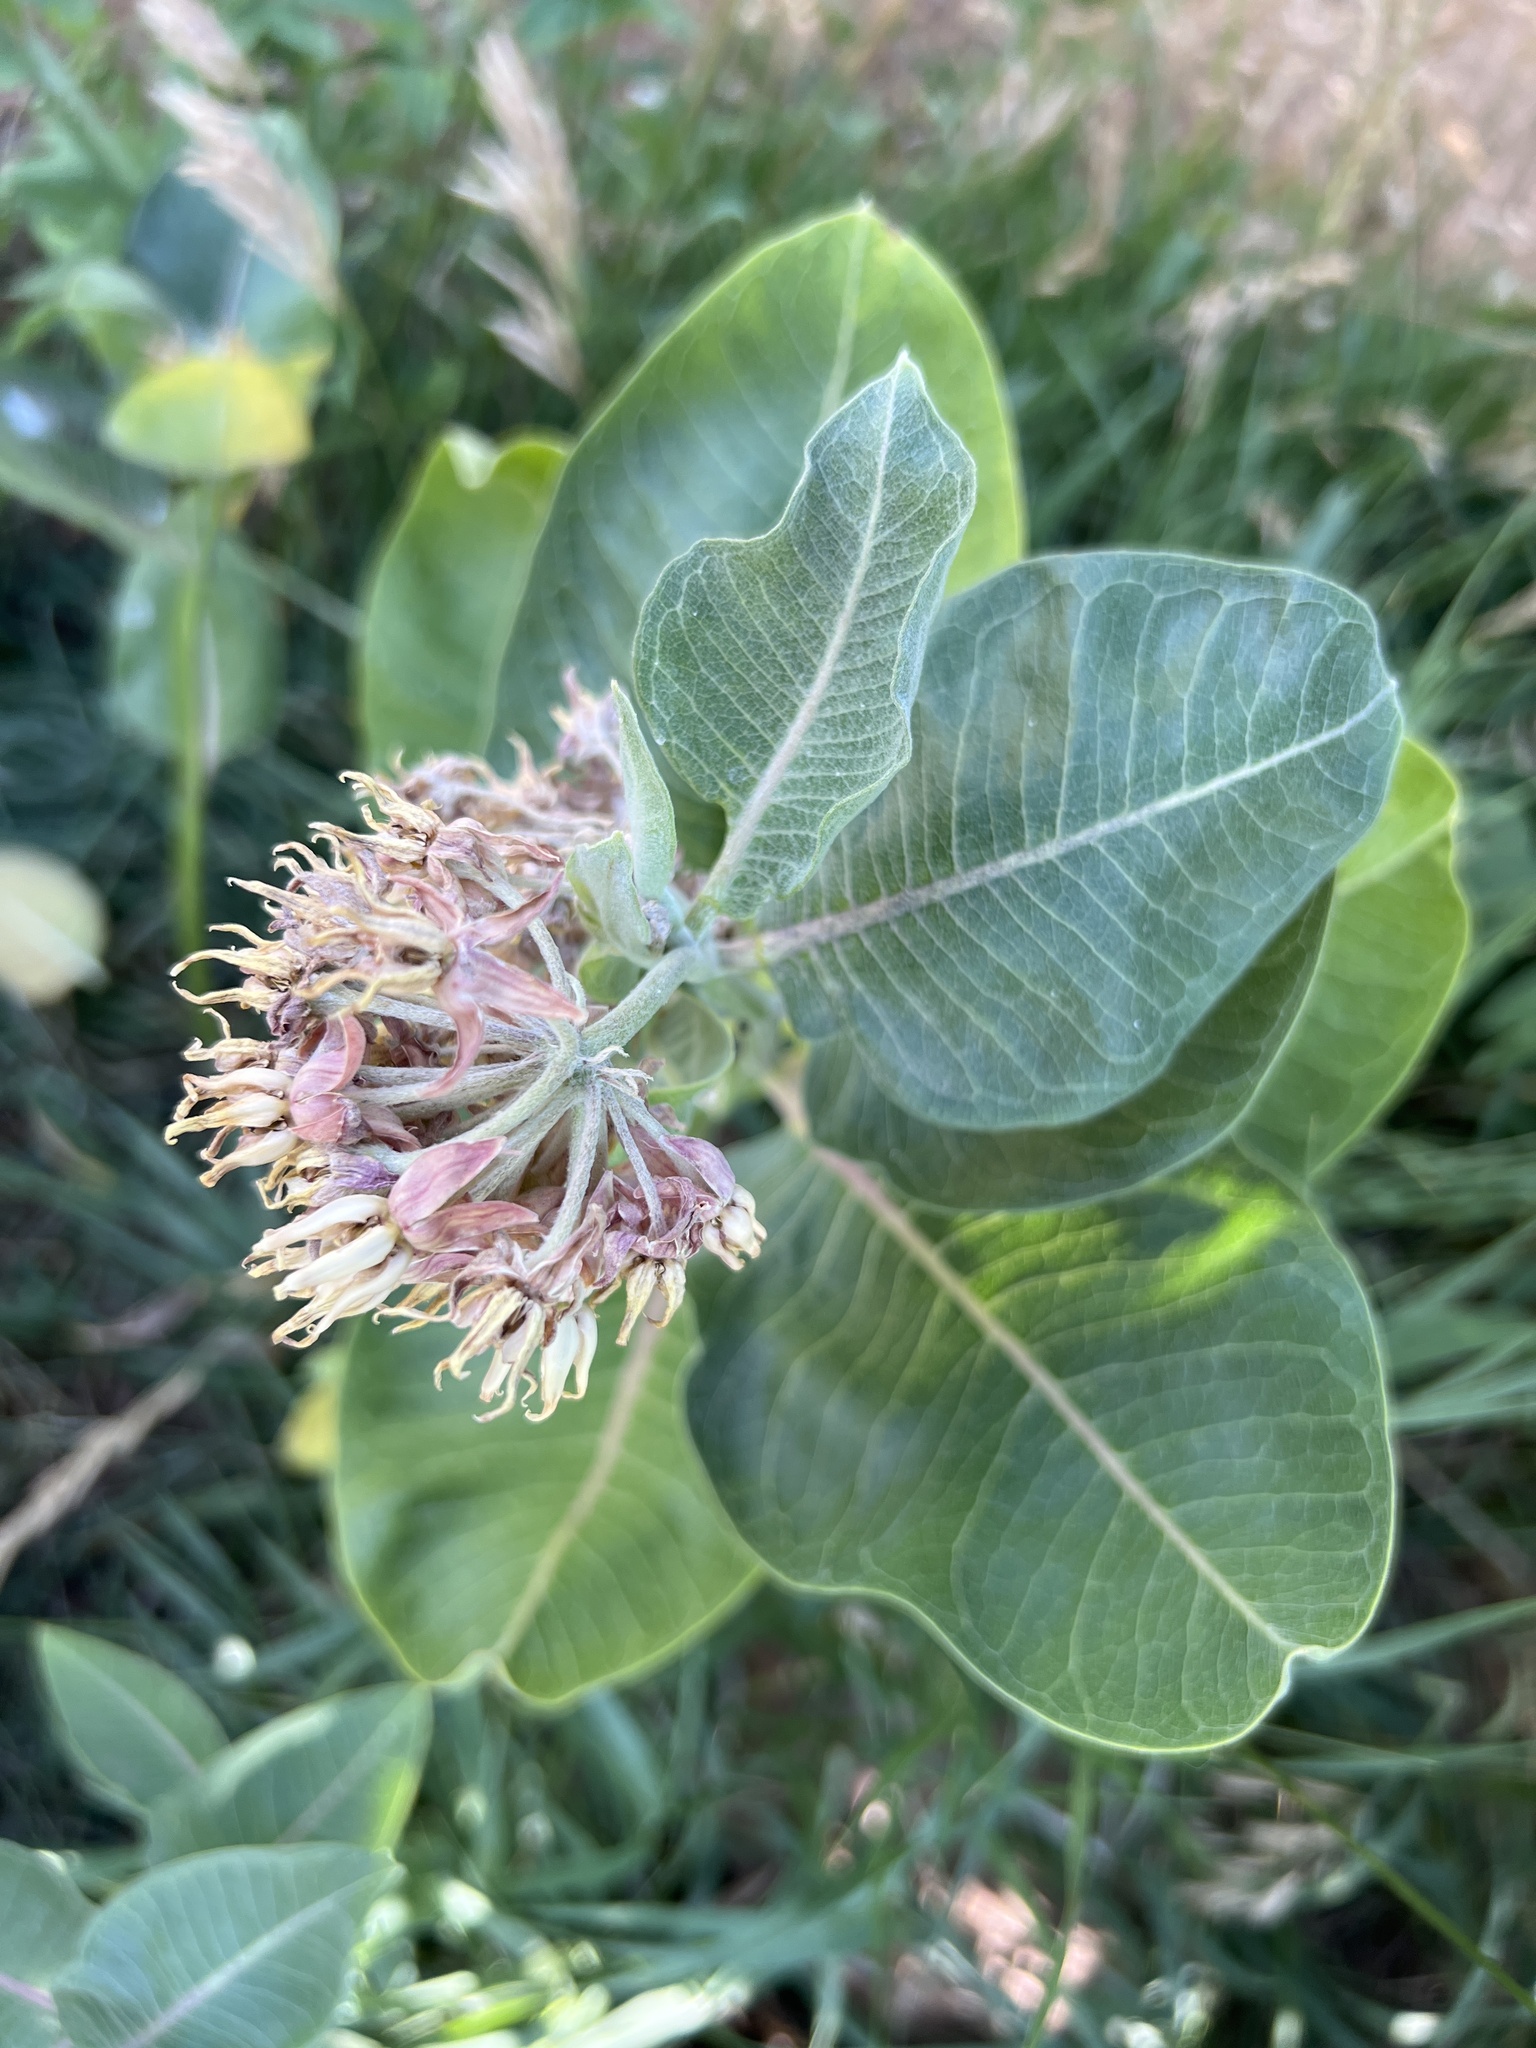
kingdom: Plantae
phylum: Tracheophyta
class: Magnoliopsida
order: Gentianales
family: Apocynaceae
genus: Asclepias
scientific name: Asclepias speciosa
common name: Showy milkweed
